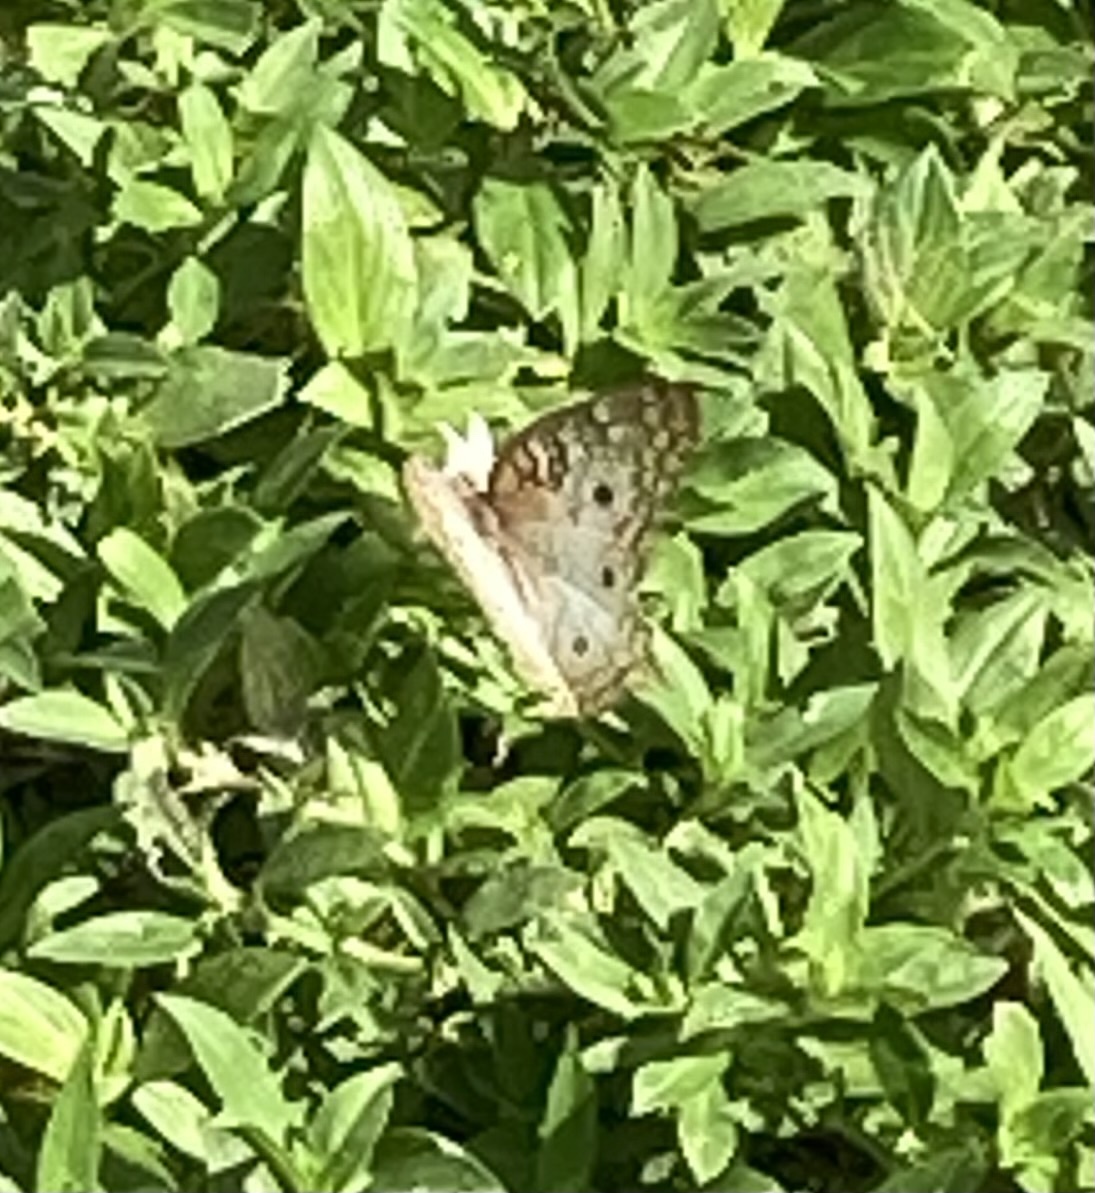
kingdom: Animalia
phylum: Arthropoda
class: Insecta
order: Lepidoptera
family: Nymphalidae
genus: Anartia
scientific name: Anartia jatrophae
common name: White peacock
